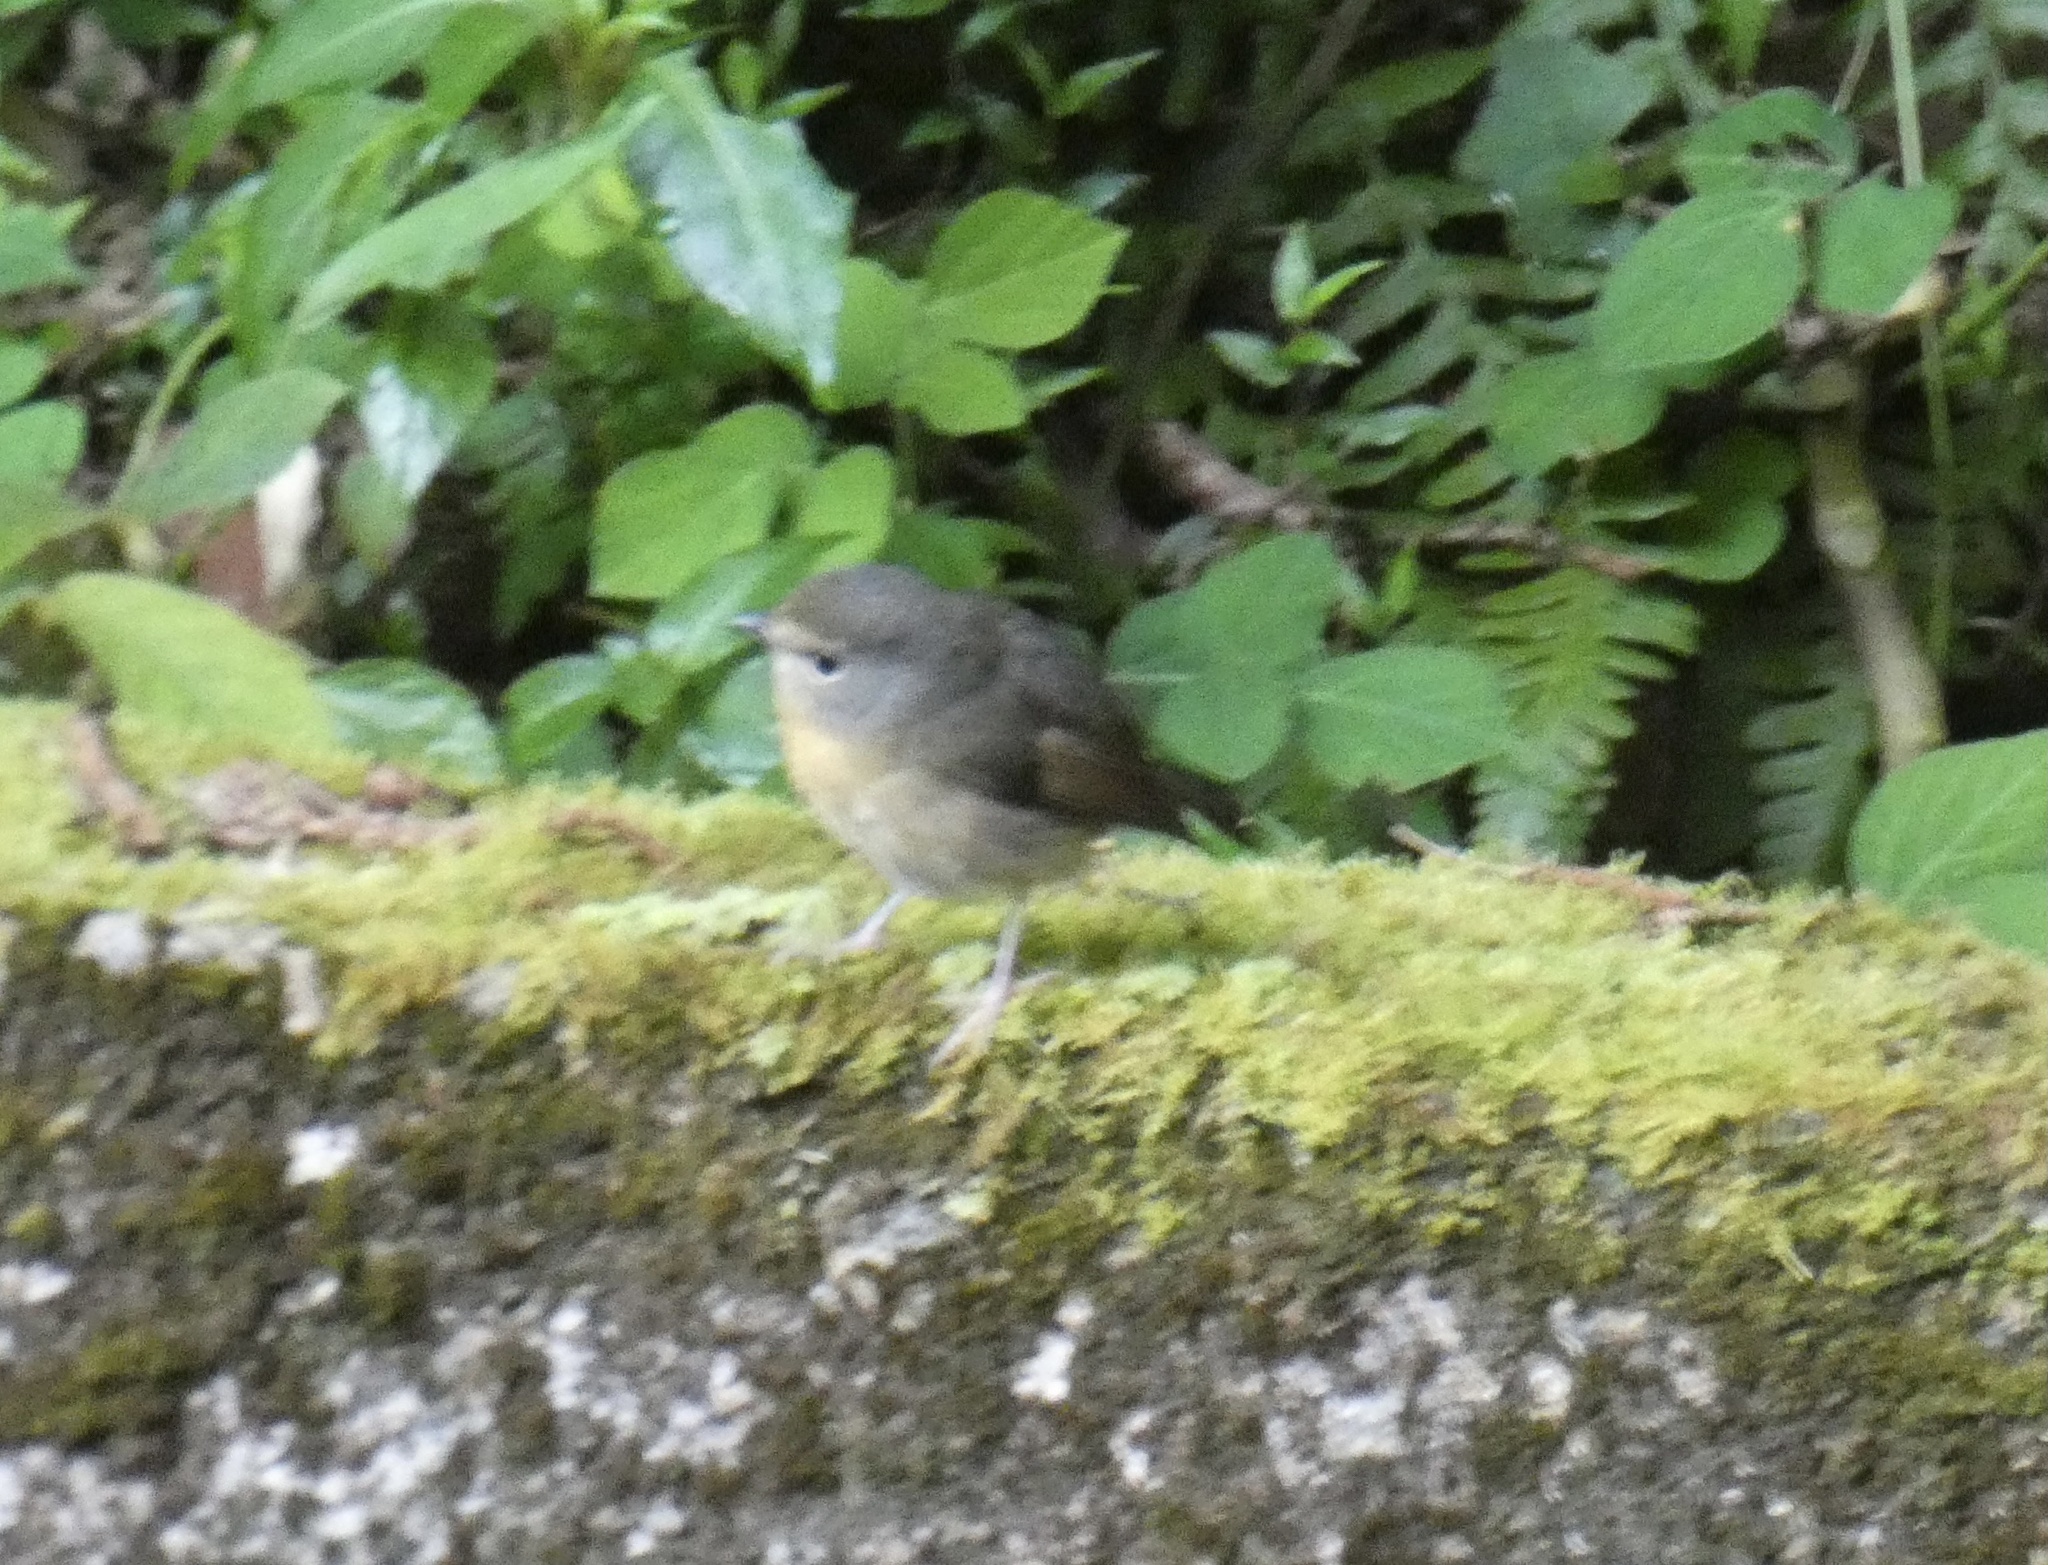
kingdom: Animalia
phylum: Chordata
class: Aves
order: Passeriformes
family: Muscicapidae
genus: Ficedula
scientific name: Ficedula hyperythra
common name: Snowy-browed flycatcher
